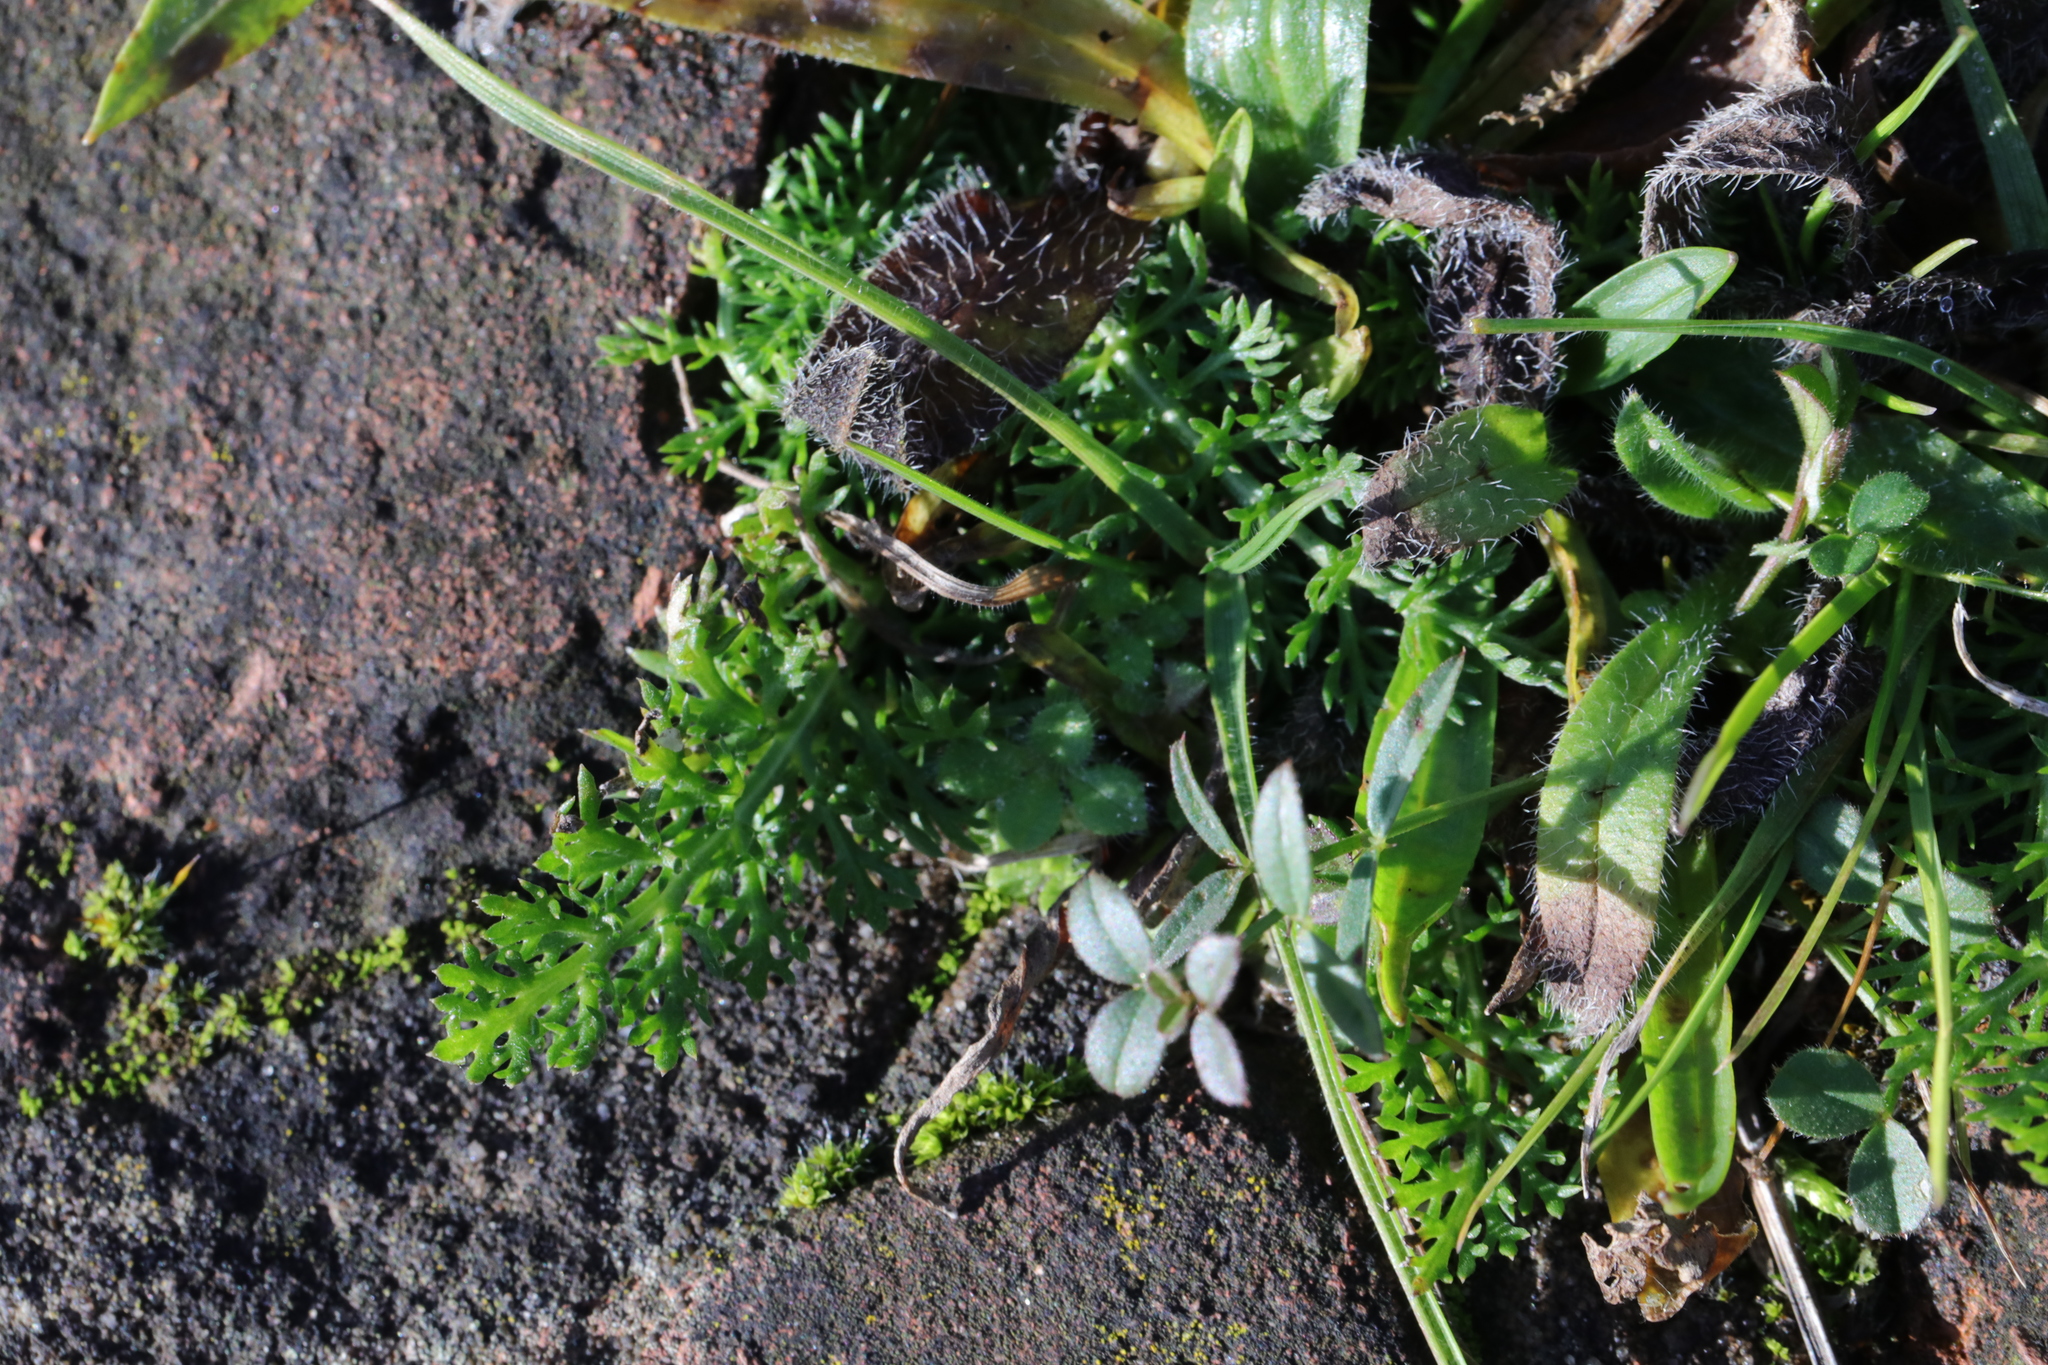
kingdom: Plantae
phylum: Tracheophyta
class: Magnoliopsida
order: Asterales
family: Asteraceae
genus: Achillea
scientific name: Achillea millefolium
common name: Yarrow
